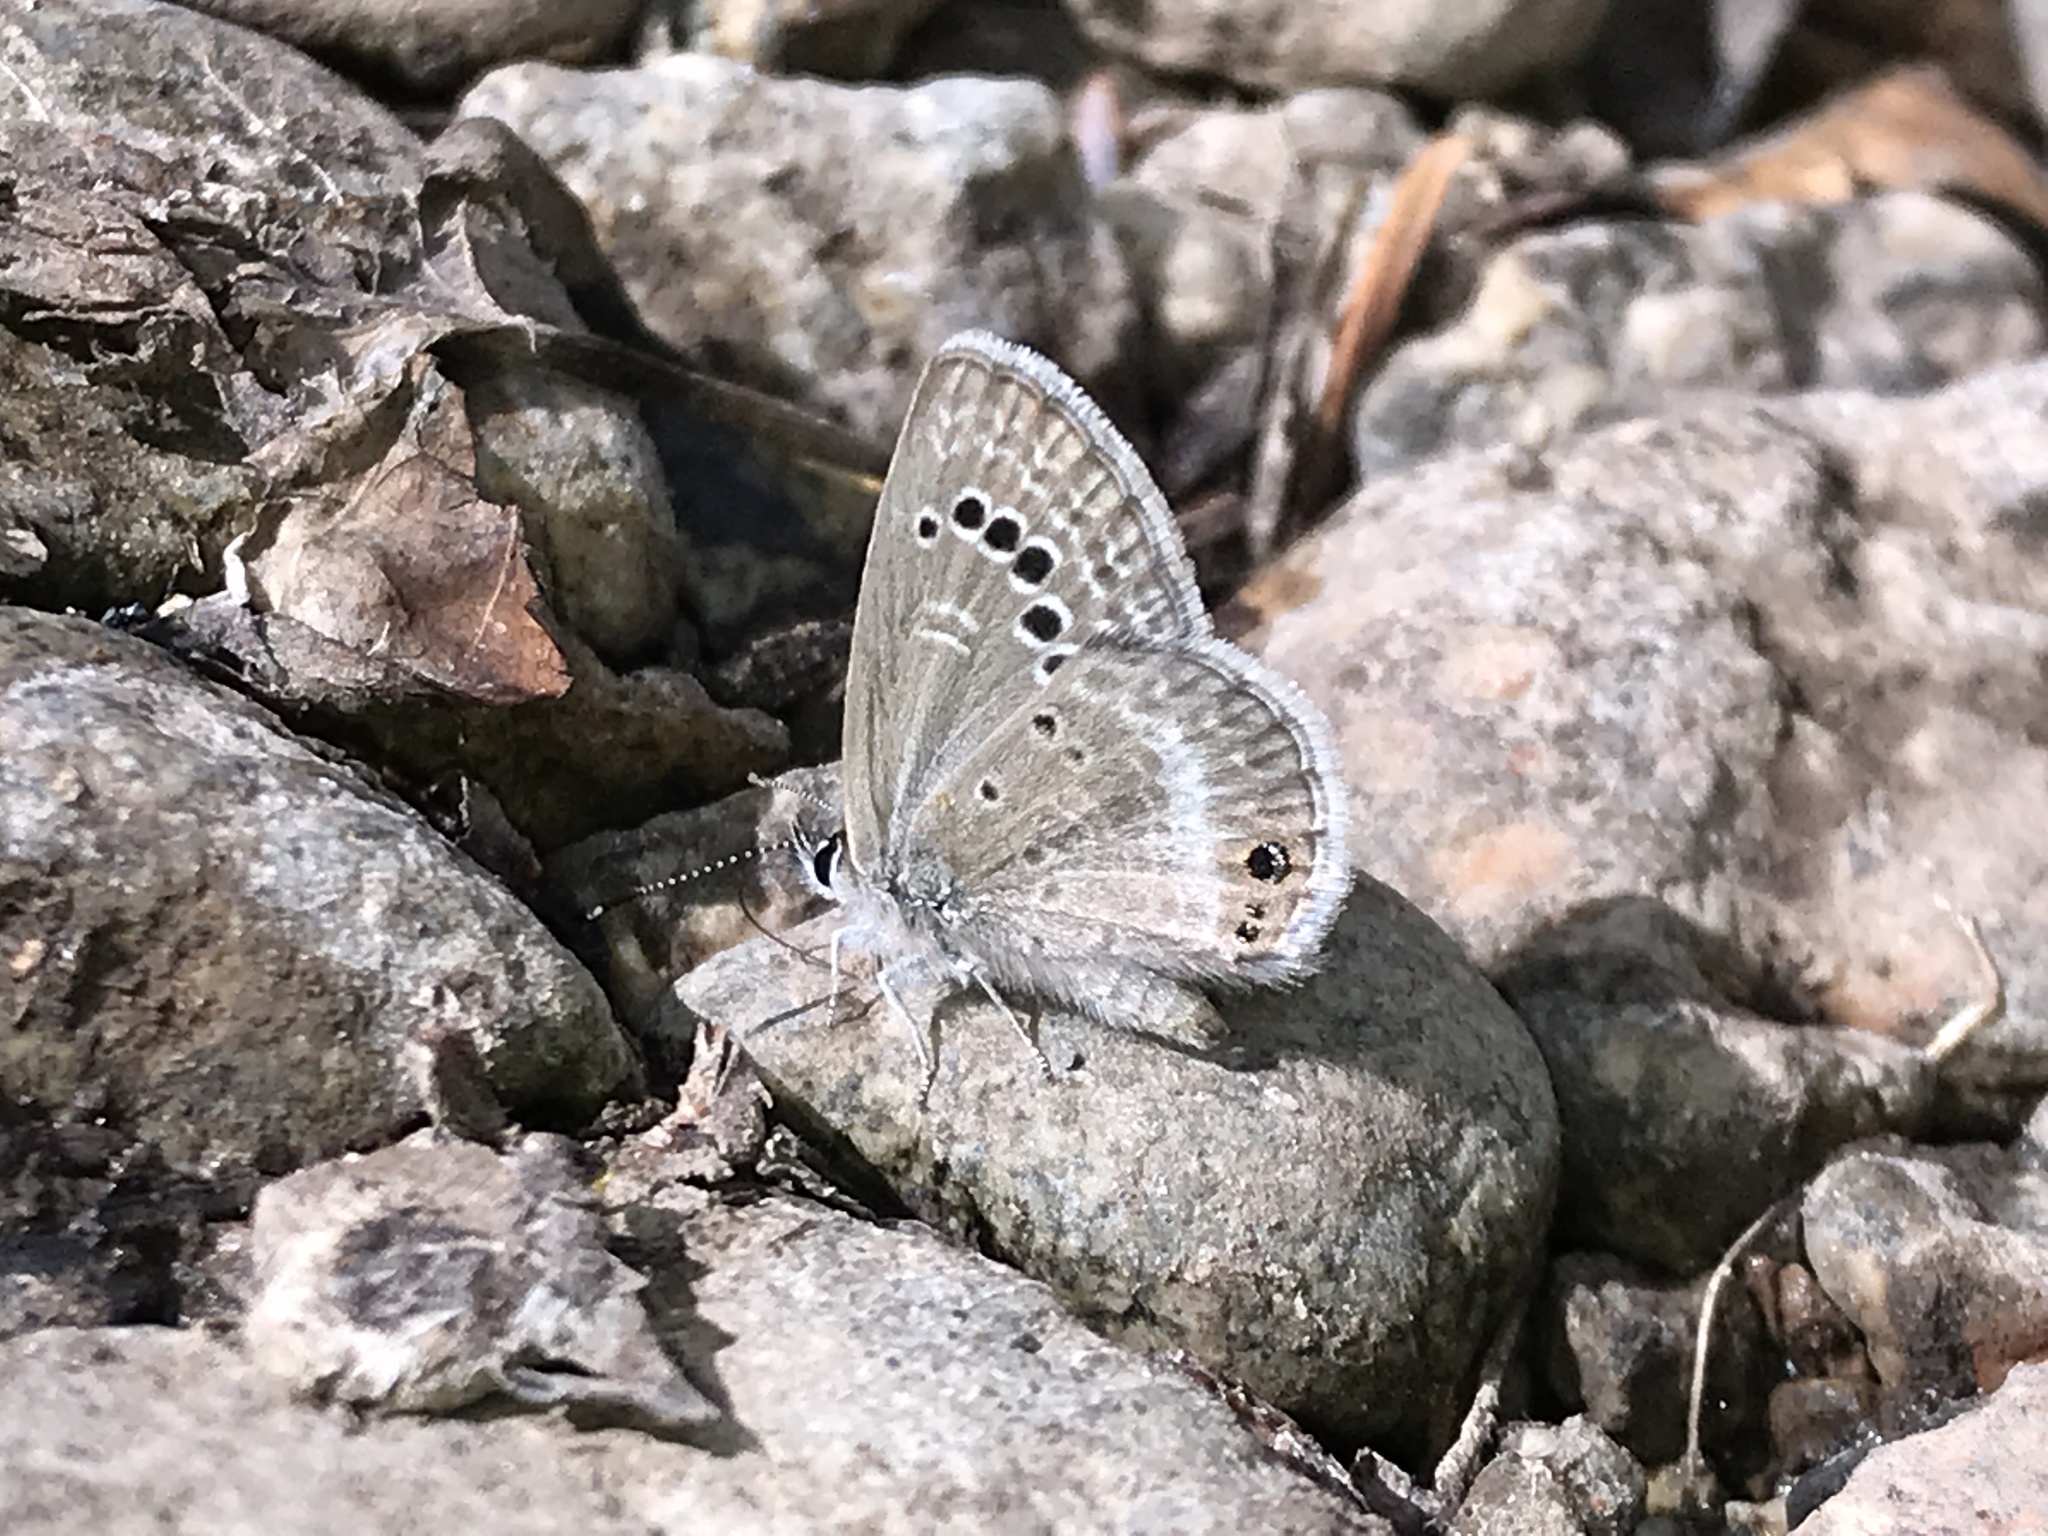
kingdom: Animalia
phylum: Arthropoda
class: Insecta
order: Lepidoptera
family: Lycaenidae
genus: Echinargus
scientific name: Echinargus isola
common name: Reakirt's blue
